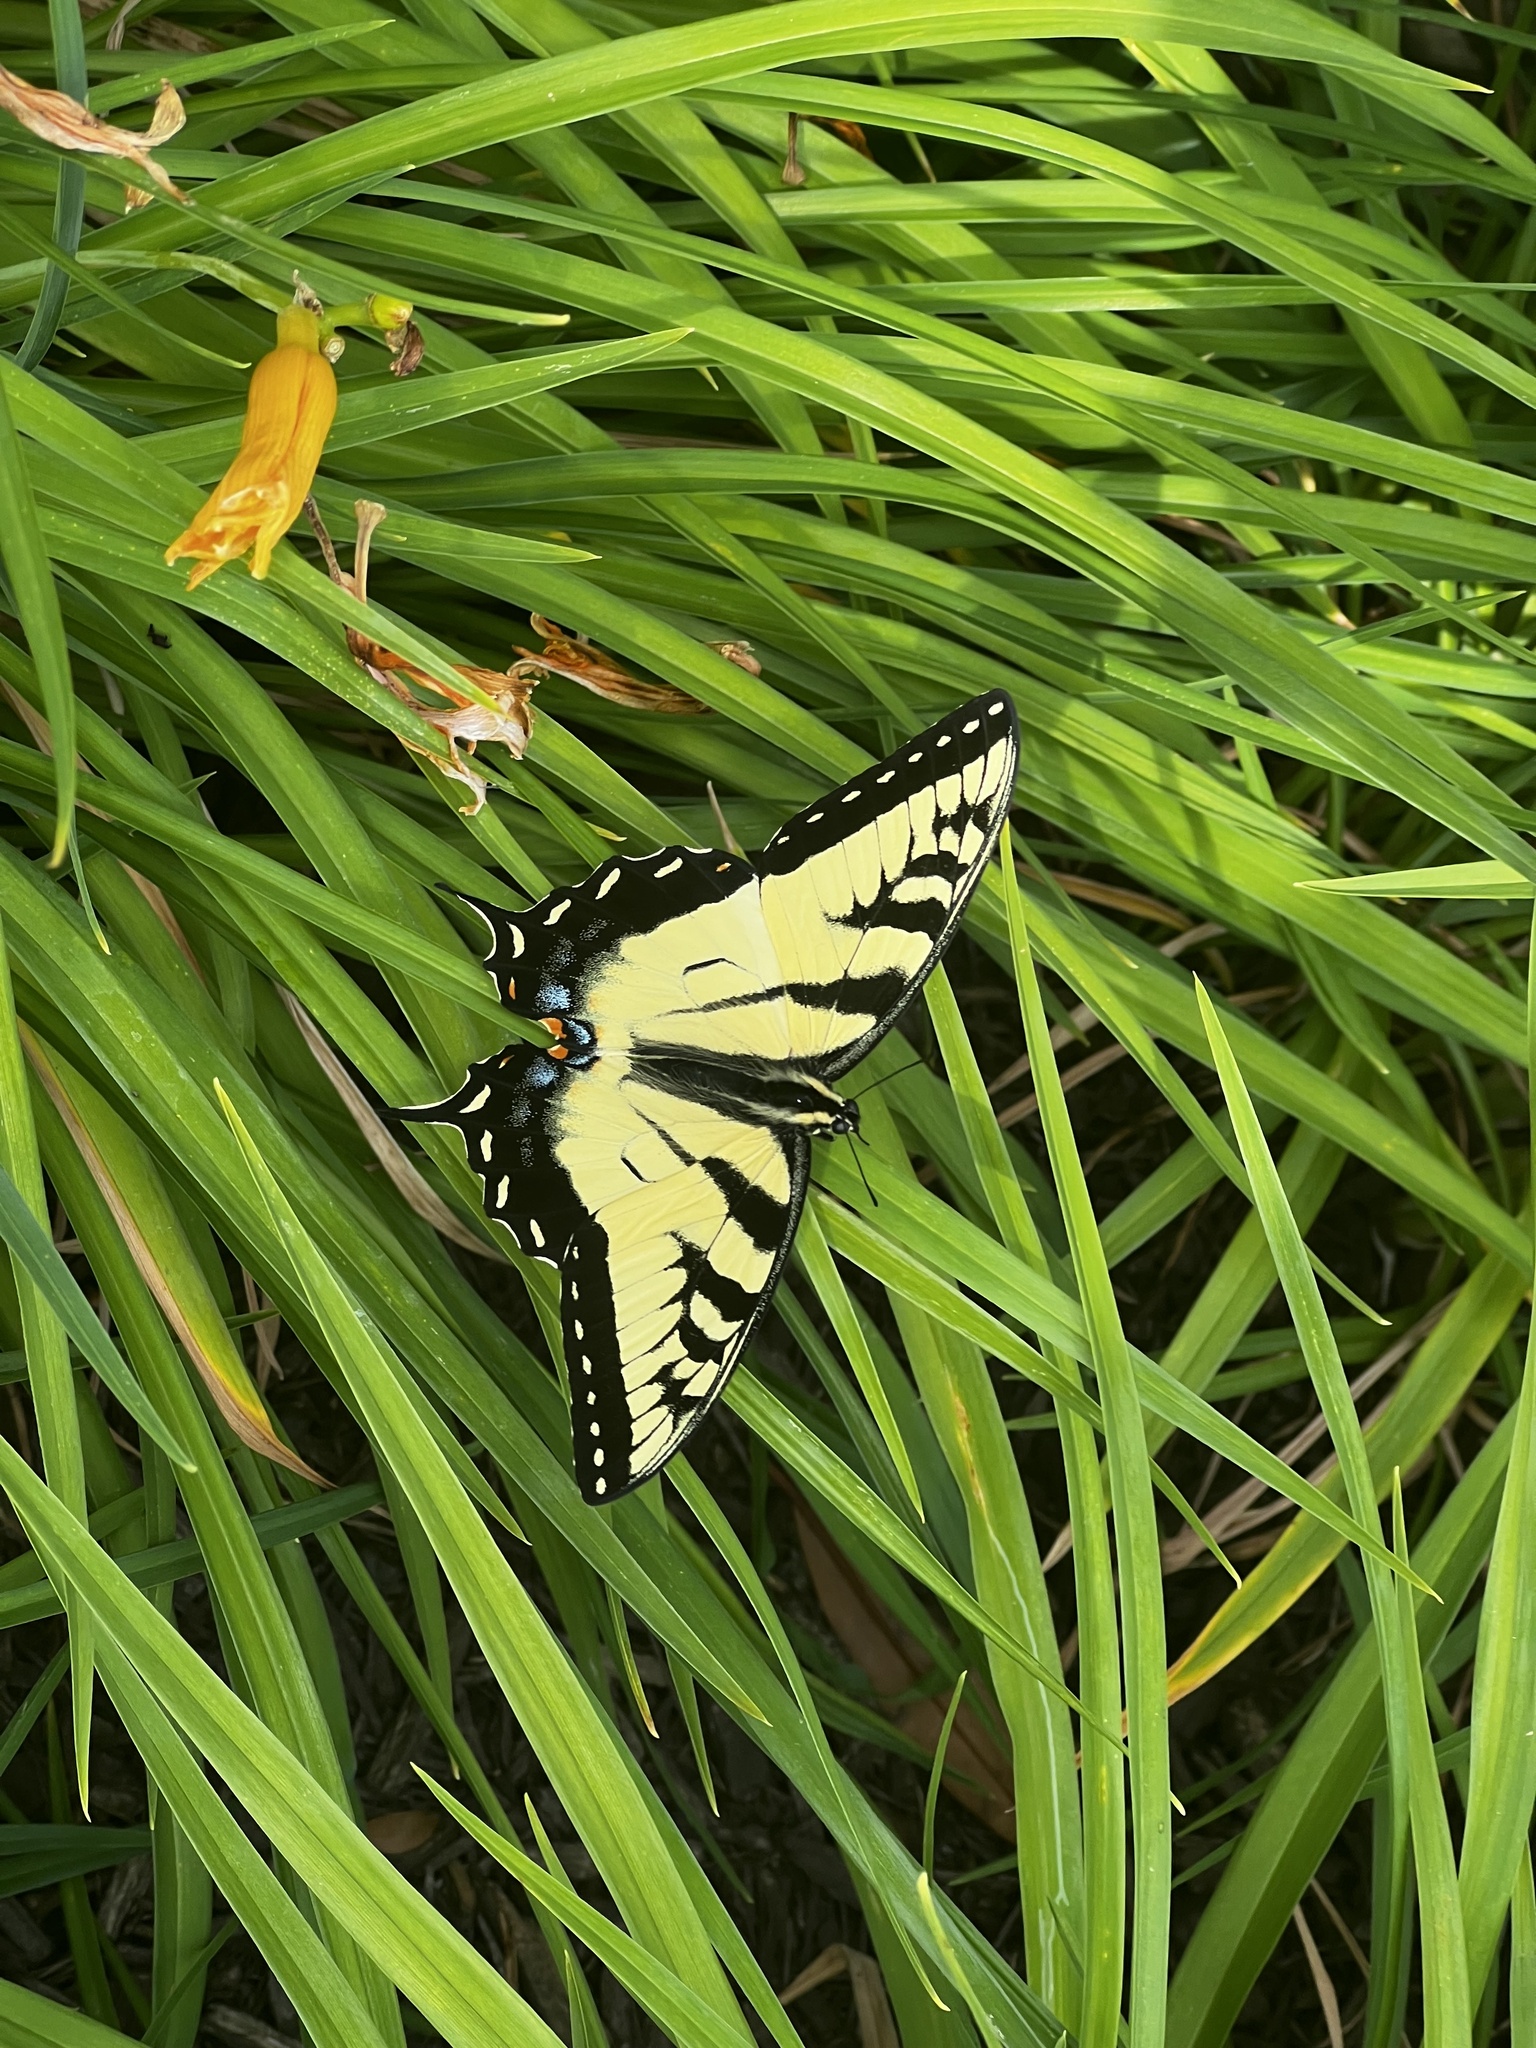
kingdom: Animalia
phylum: Arthropoda
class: Insecta
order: Lepidoptera
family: Papilionidae
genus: Papilio
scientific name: Papilio glaucus
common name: Tiger swallowtail
